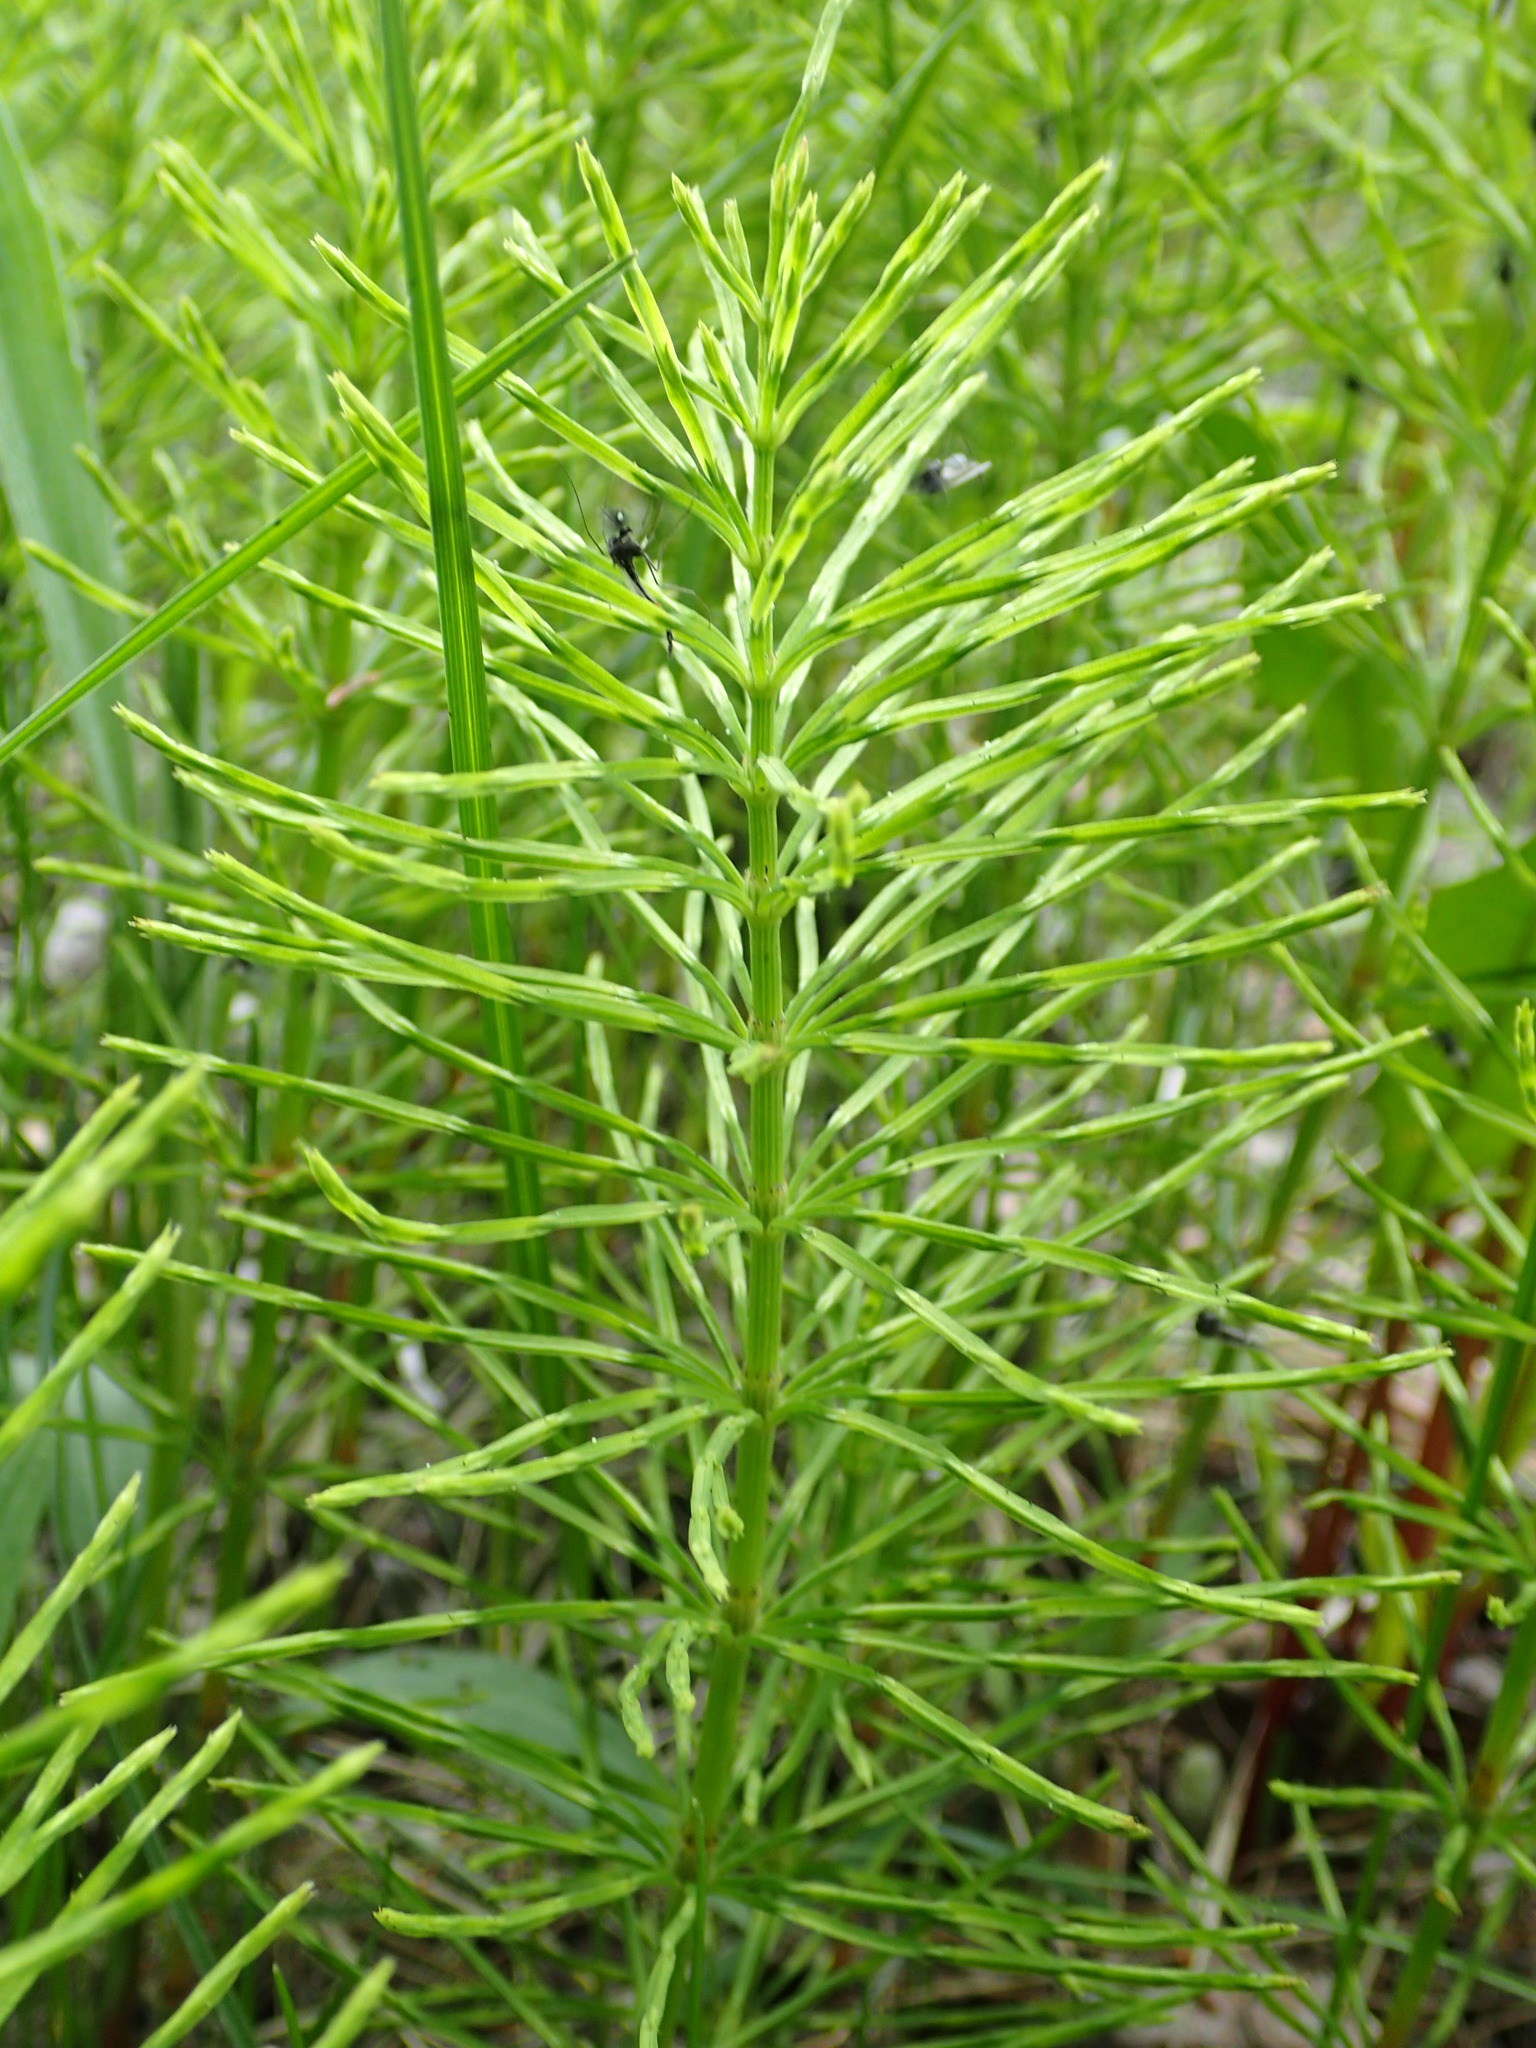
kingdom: Plantae
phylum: Tracheophyta
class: Polypodiopsida
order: Equisetales
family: Equisetaceae
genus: Equisetum
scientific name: Equisetum arvense
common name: Field horsetail
